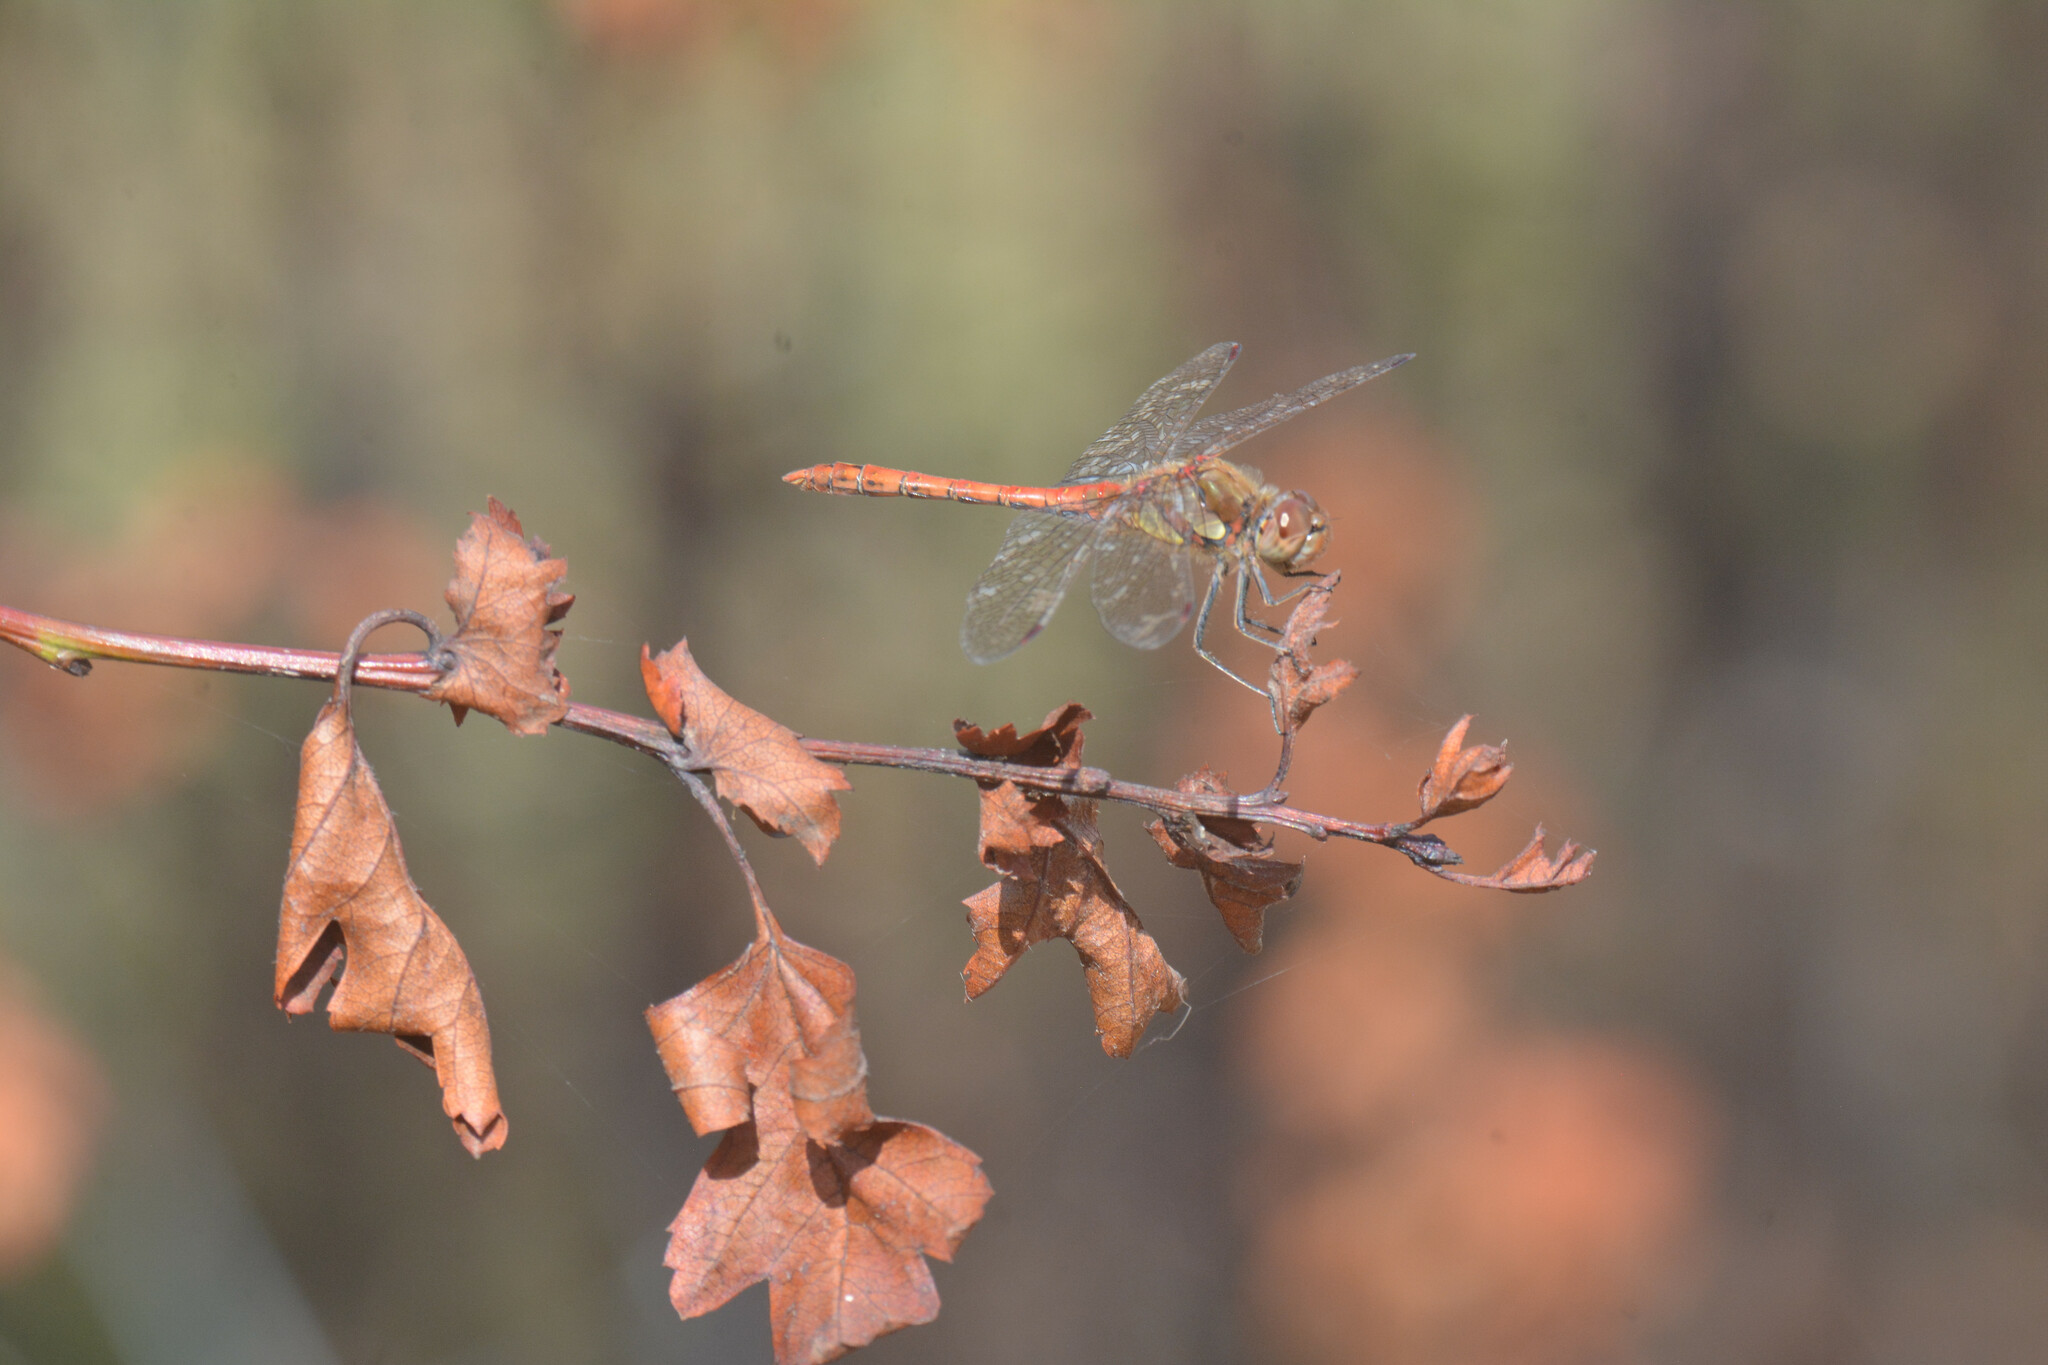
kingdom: Animalia
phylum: Arthropoda
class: Insecta
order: Odonata
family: Libellulidae
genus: Sympetrum
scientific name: Sympetrum striolatum
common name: Common darter
